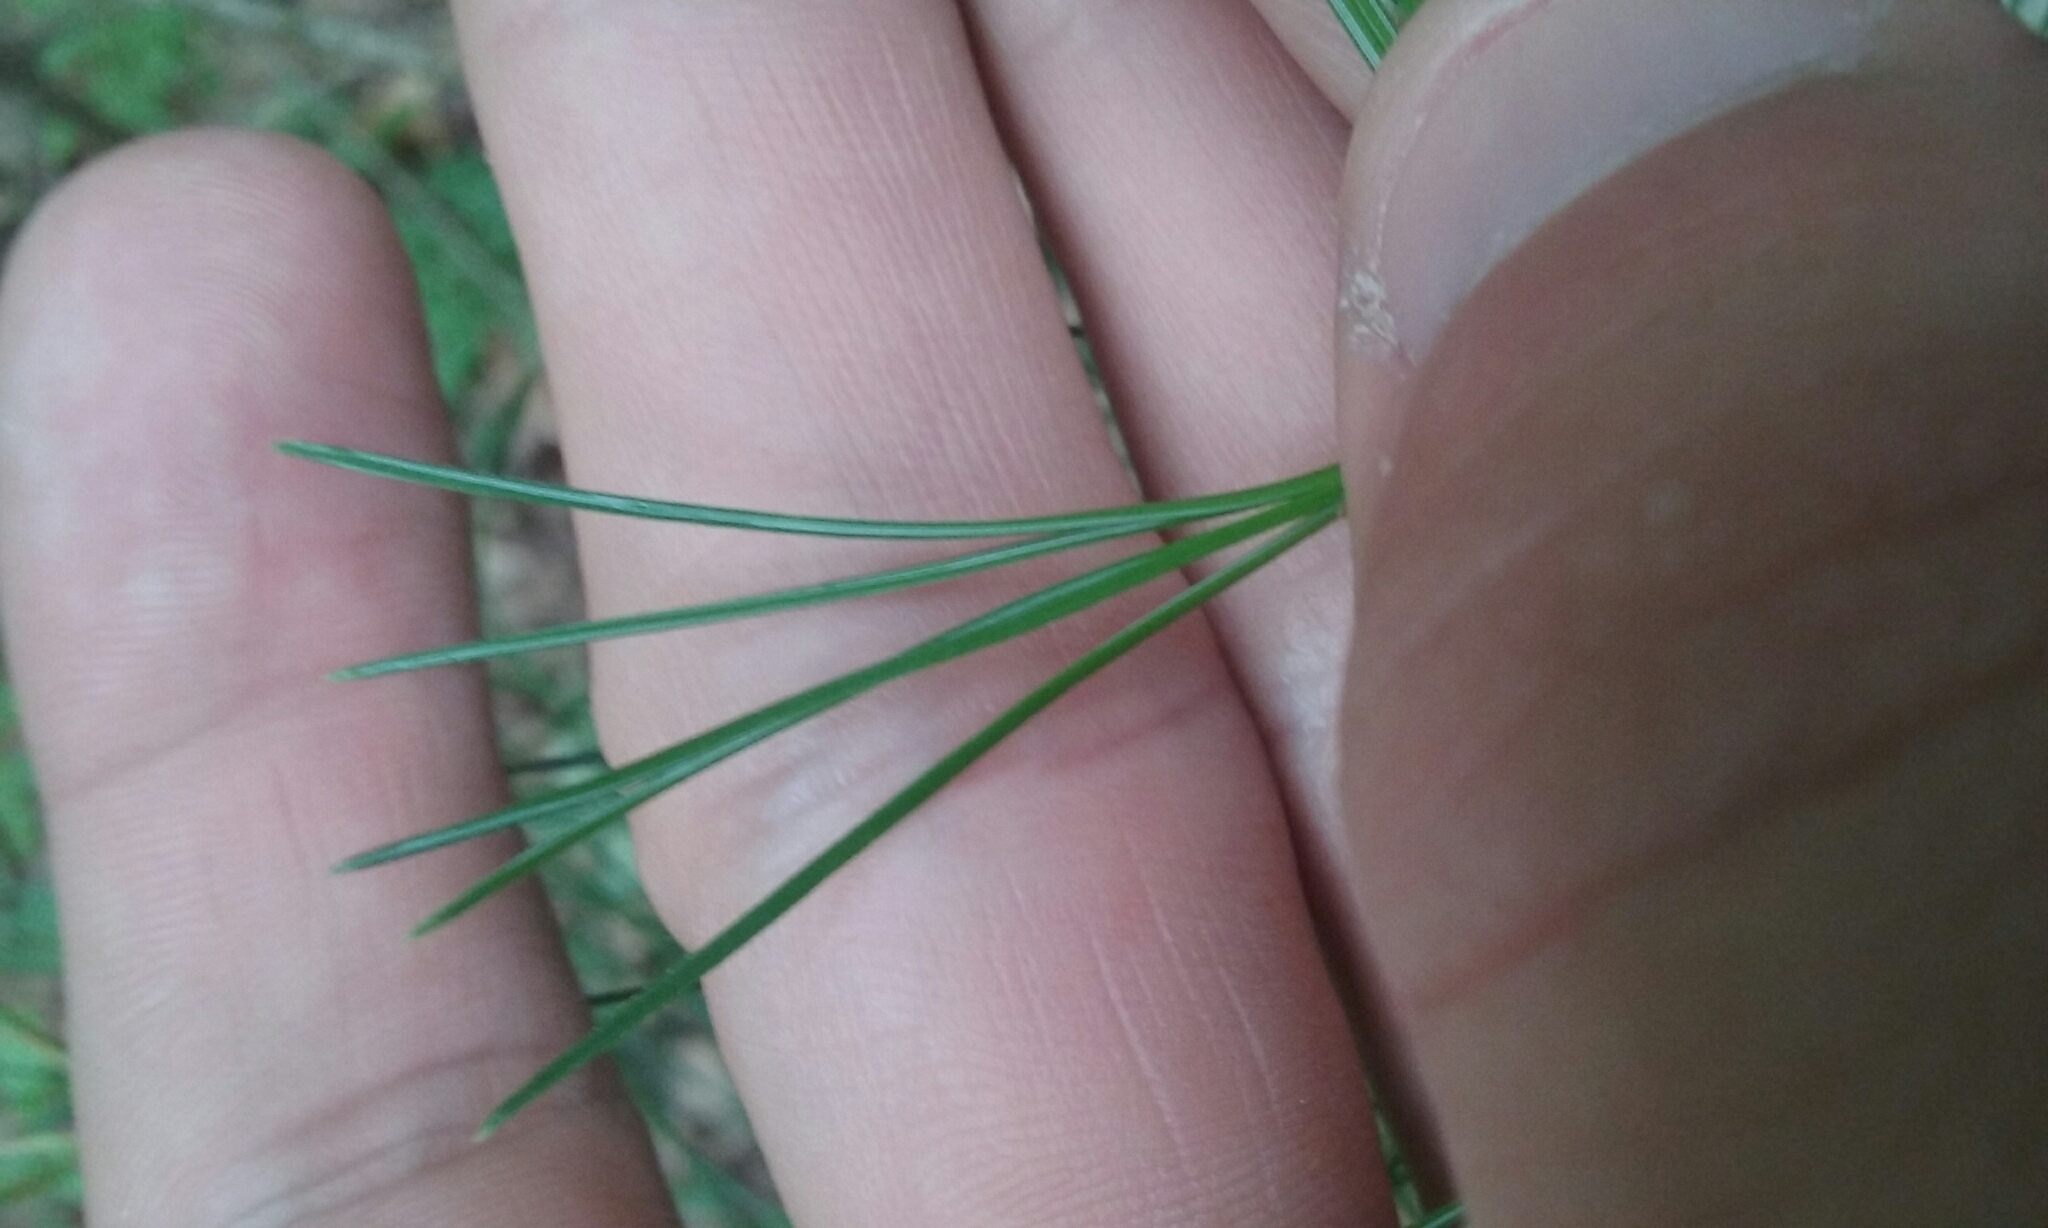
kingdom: Plantae
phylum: Tracheophyta
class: Pinopsida
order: Pinales
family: Pinaceae
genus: Pinus
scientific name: Pinus strobus
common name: Weymouth pine
